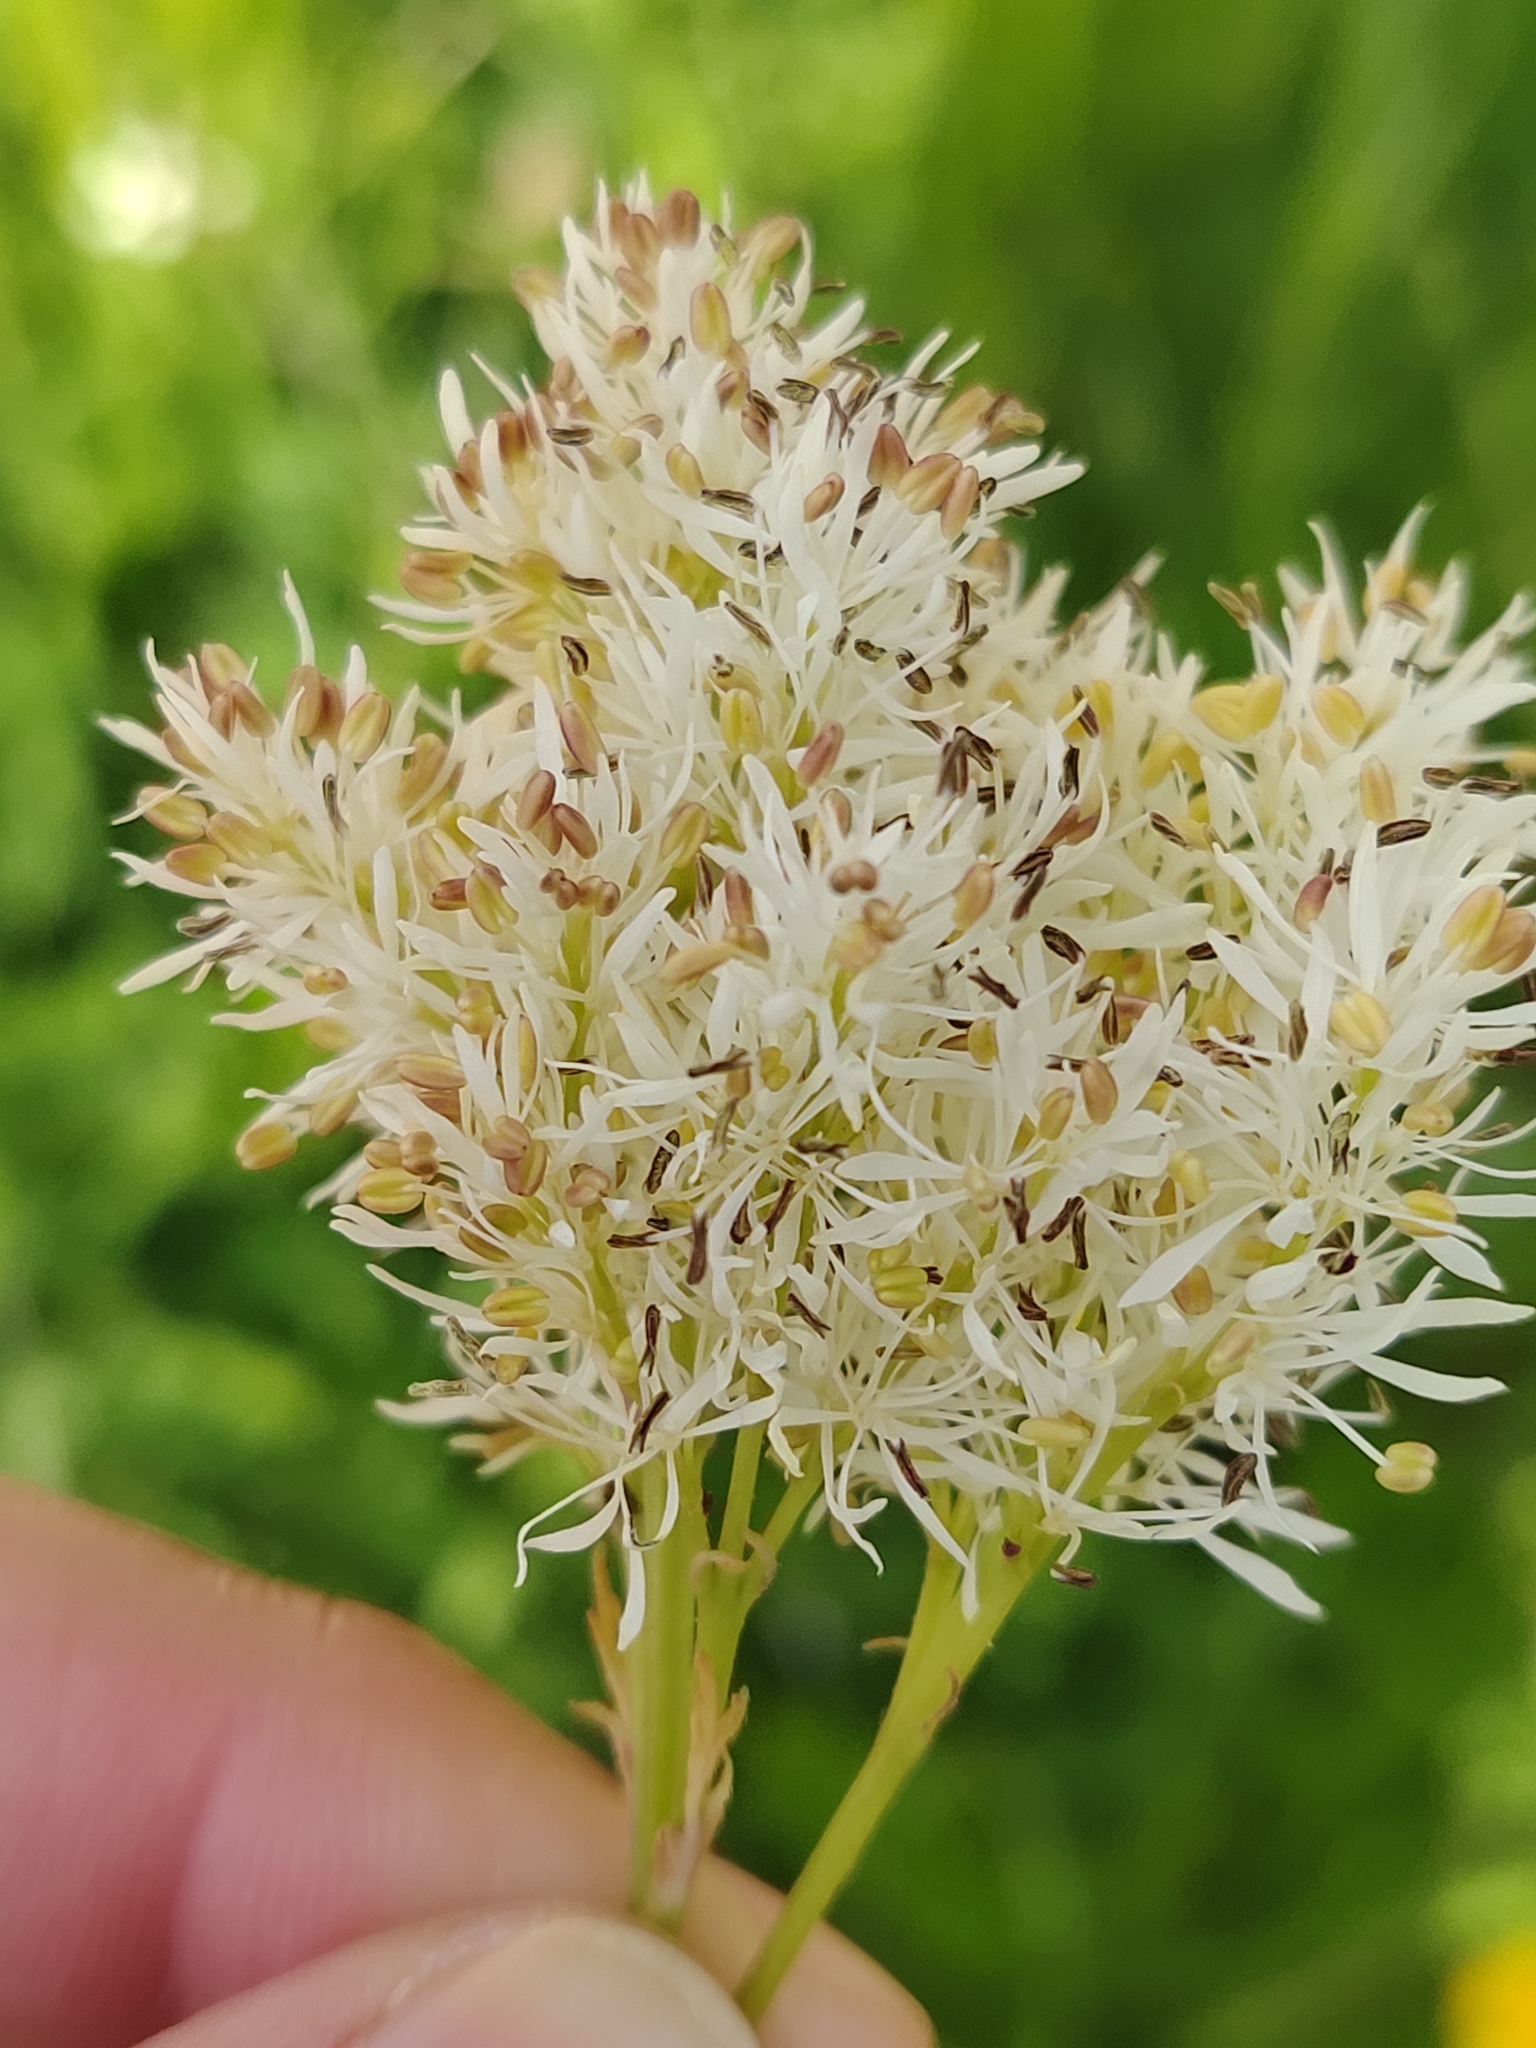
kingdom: Plantae
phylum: Tracheophyta
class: Magnoliopsida
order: Lamiales
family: Oleaceae
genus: Fraxinus
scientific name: Fraxinus ornus
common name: Manna ash
